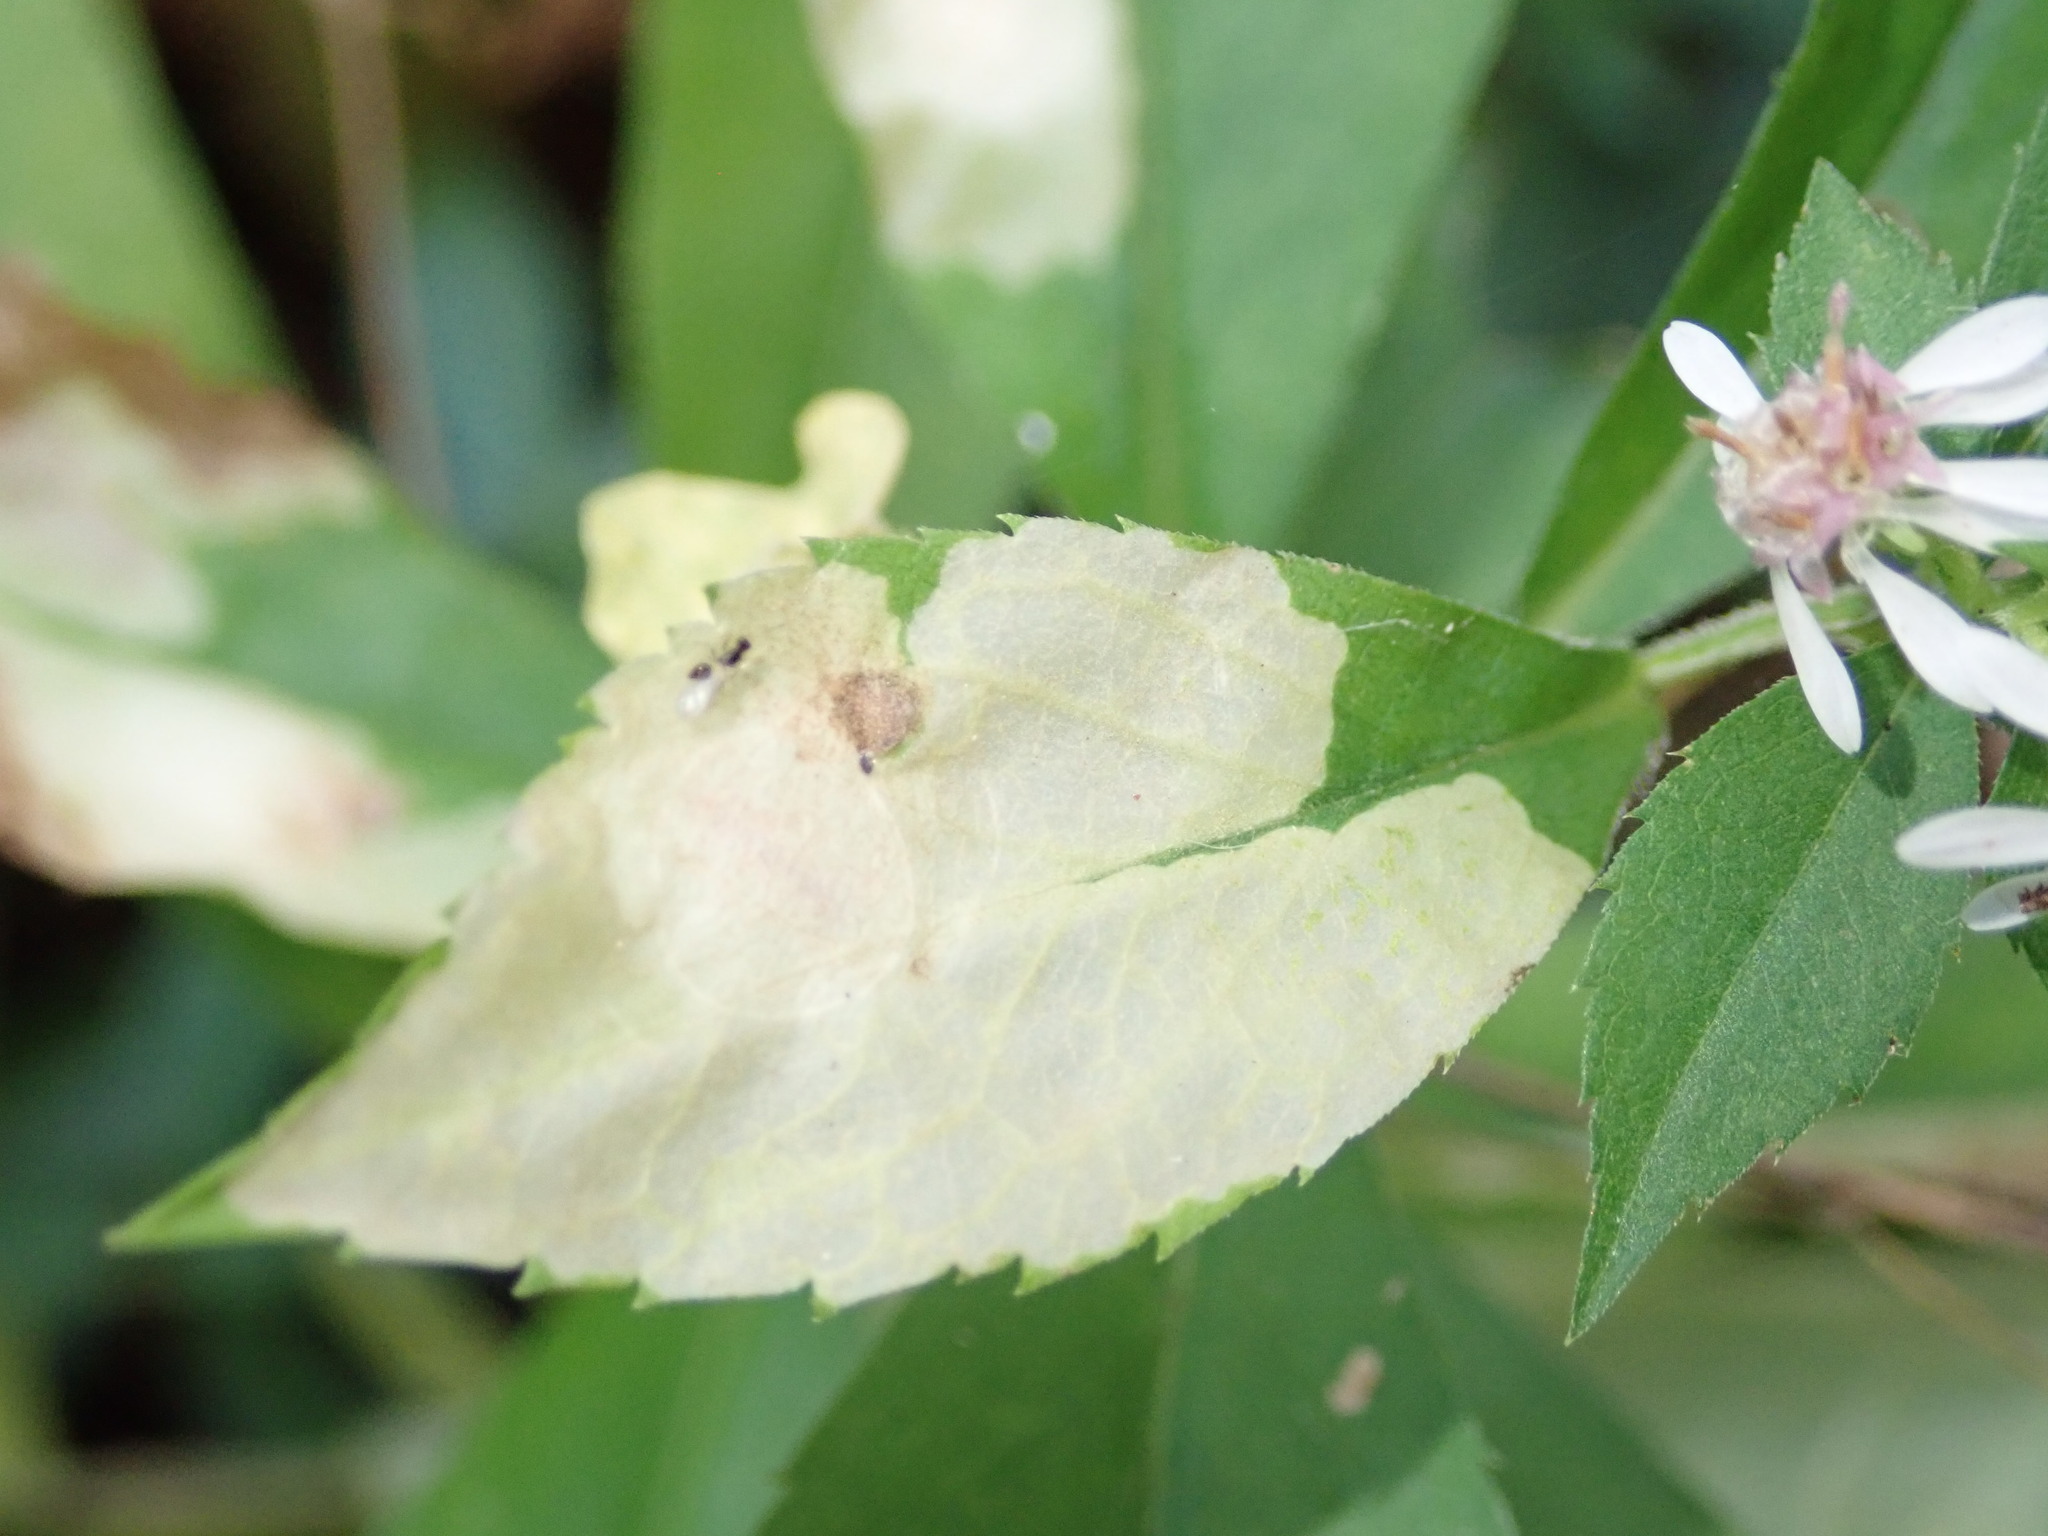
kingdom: Animalia
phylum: Arthropoda
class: Insecta
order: Lepidoptera
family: Tischeriidae
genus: Astrotischeria
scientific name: Astrotischeria astericola
